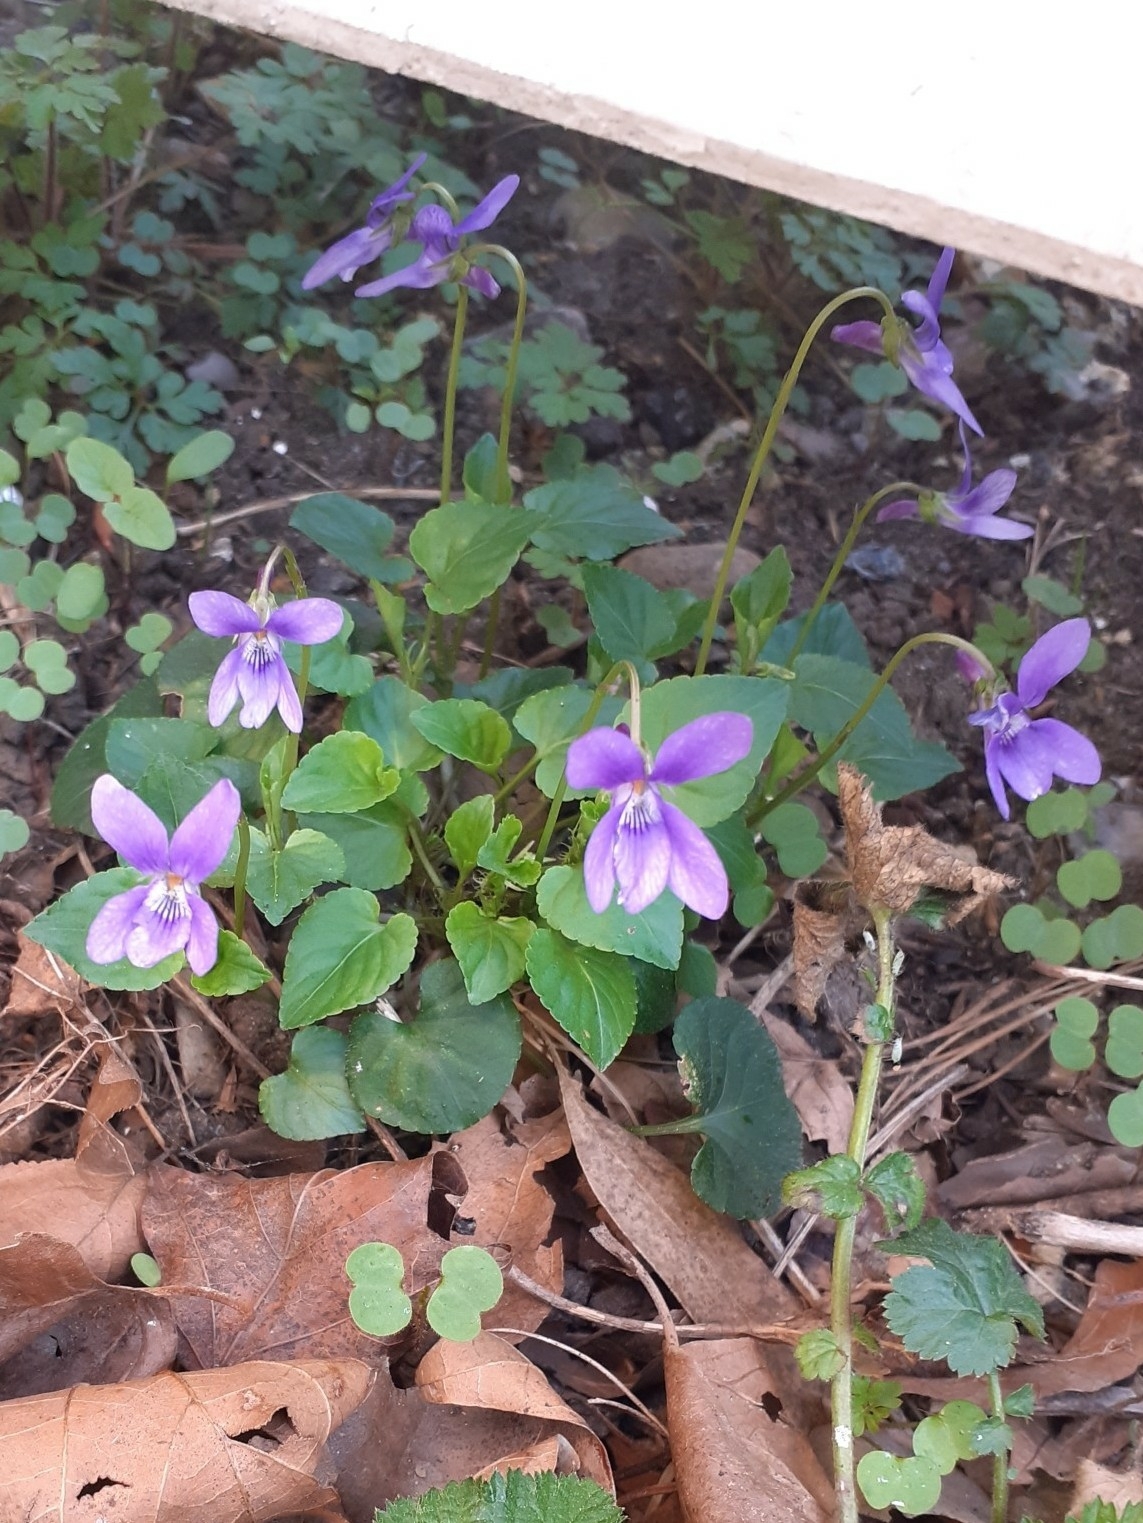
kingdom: Plantae
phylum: Tracheophyta
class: Magnoliopsida
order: Malpighiales
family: Violaceae
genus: Viola
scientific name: Viola reichenbachiana
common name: Early dog-violet
